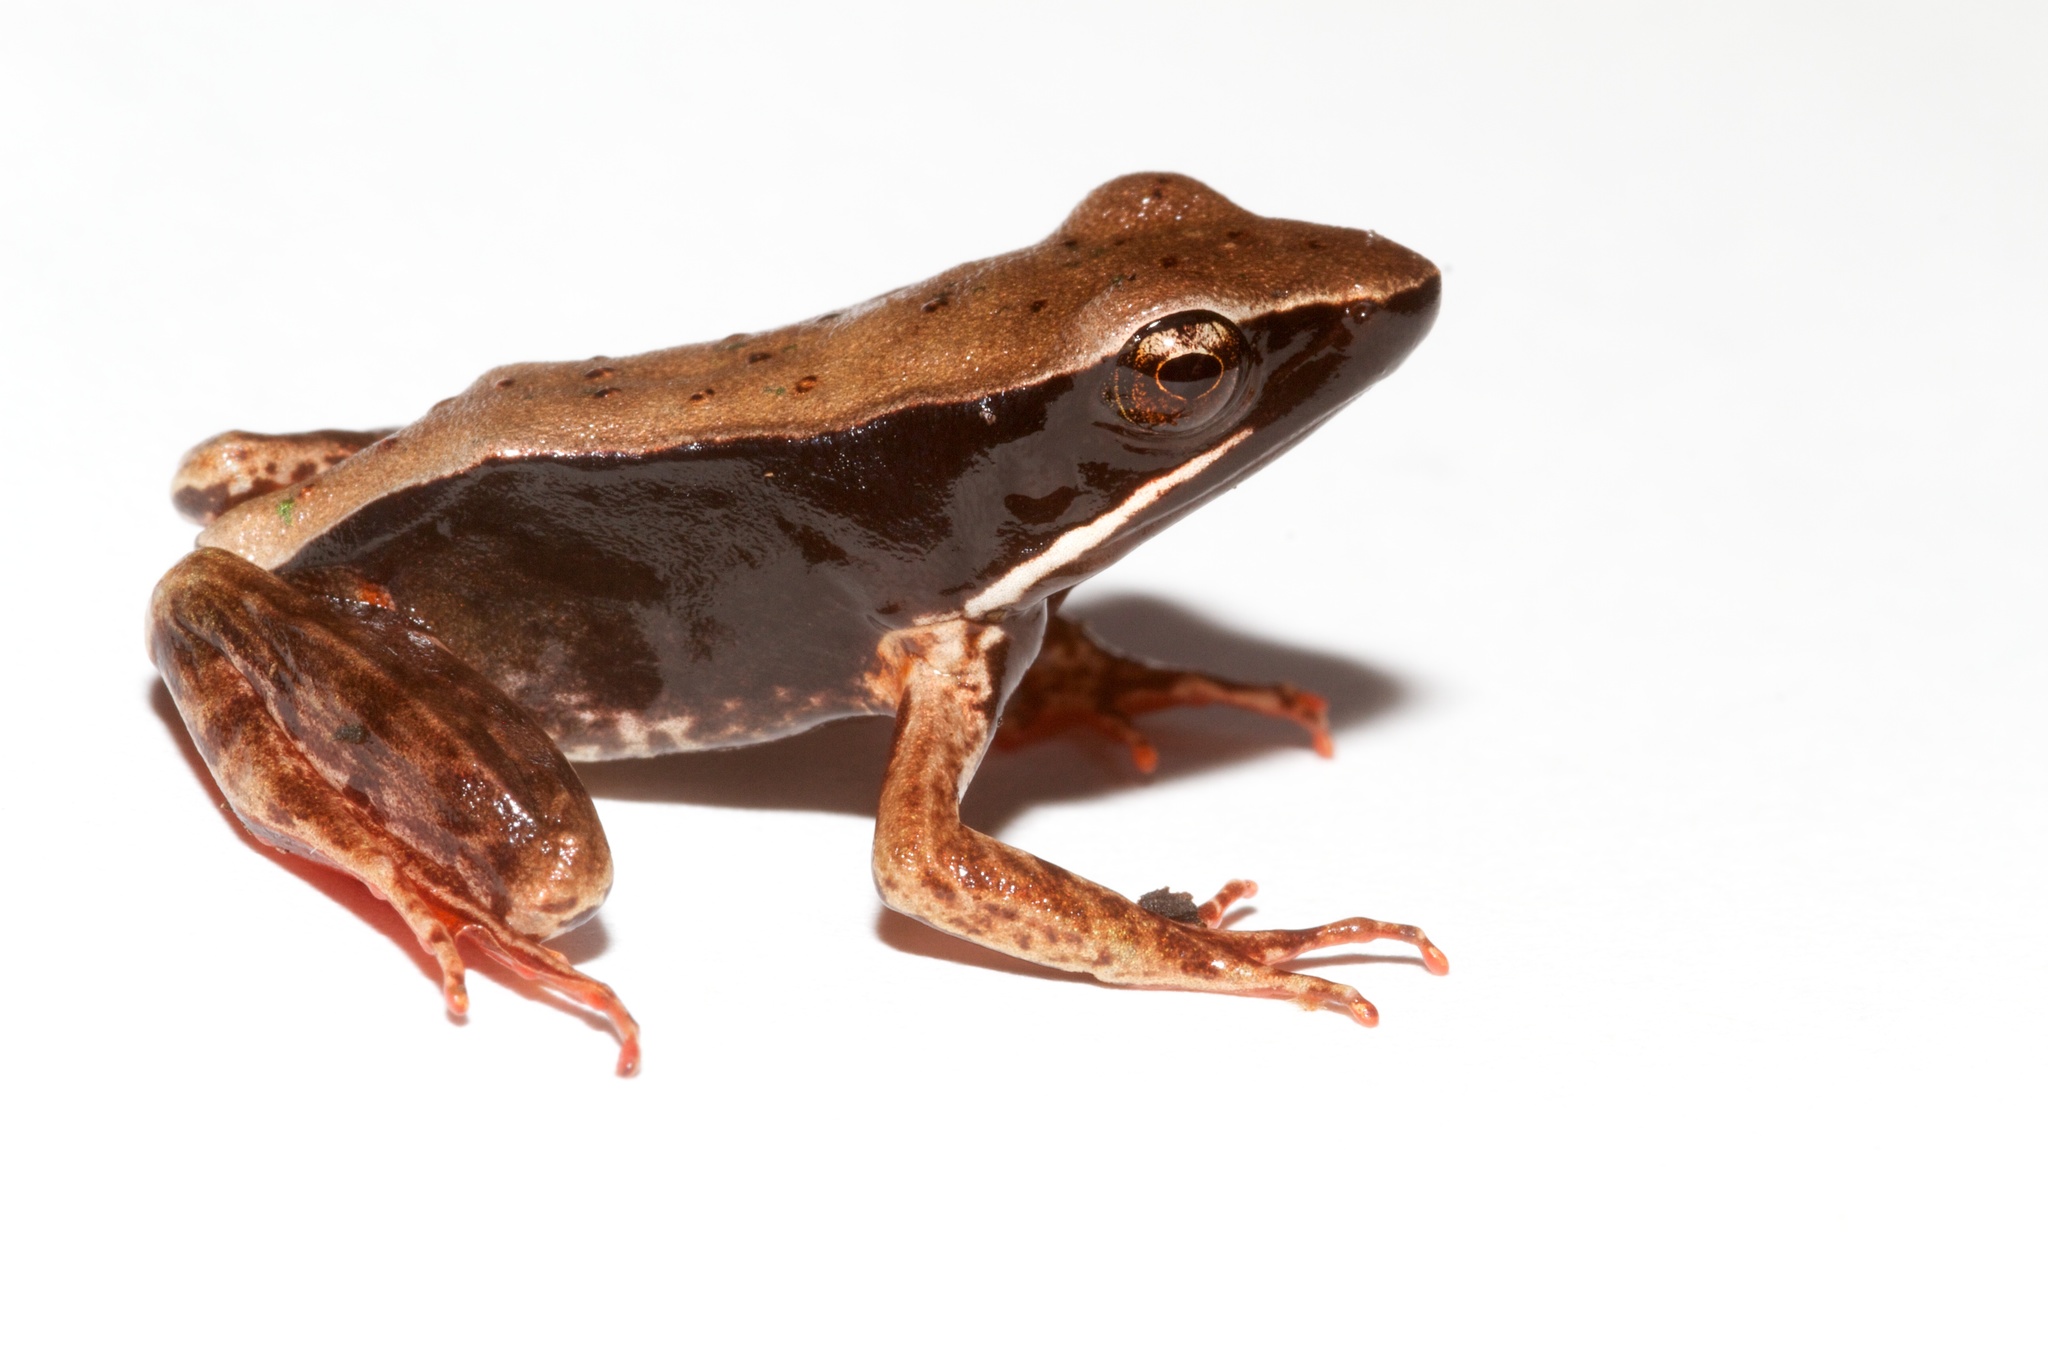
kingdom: Animalia
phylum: Chordata
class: Amphibia
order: Anura
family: Ranidae
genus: Lithobates
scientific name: Lithobates warszewitschii
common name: Warszewitsch's frog
